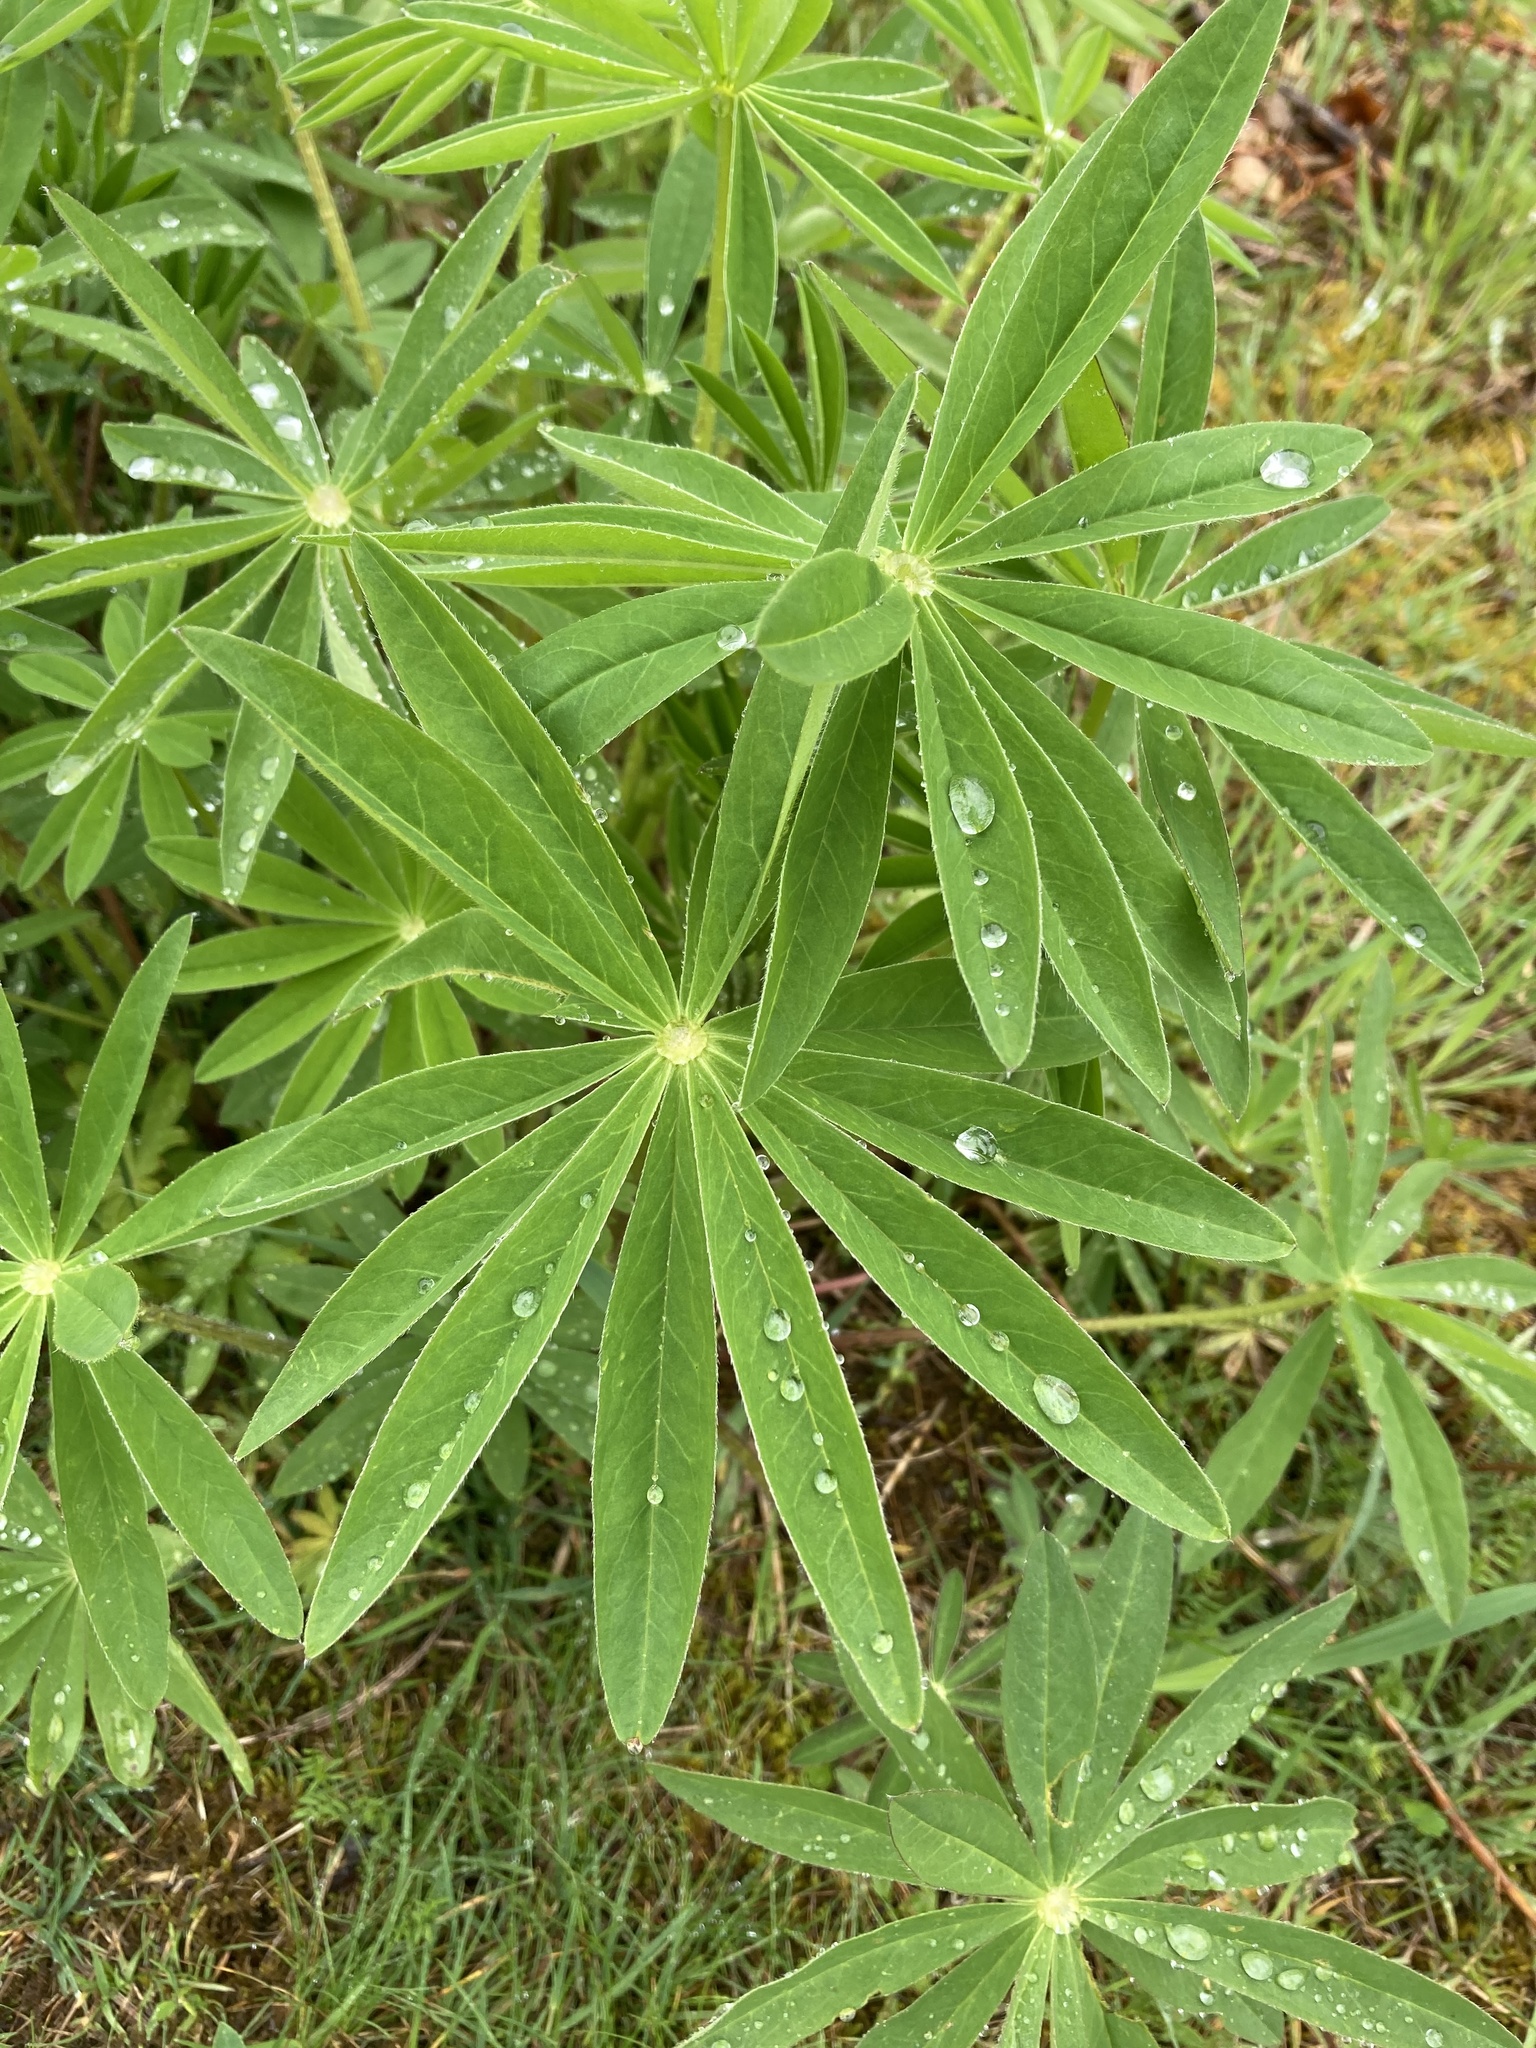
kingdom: Plantae
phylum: Tracheophyta
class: Magnoliopsida
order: Fabales
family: Fabaceae
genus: Lupinus
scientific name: Lupinus polyphyllus
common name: Garden lupin
